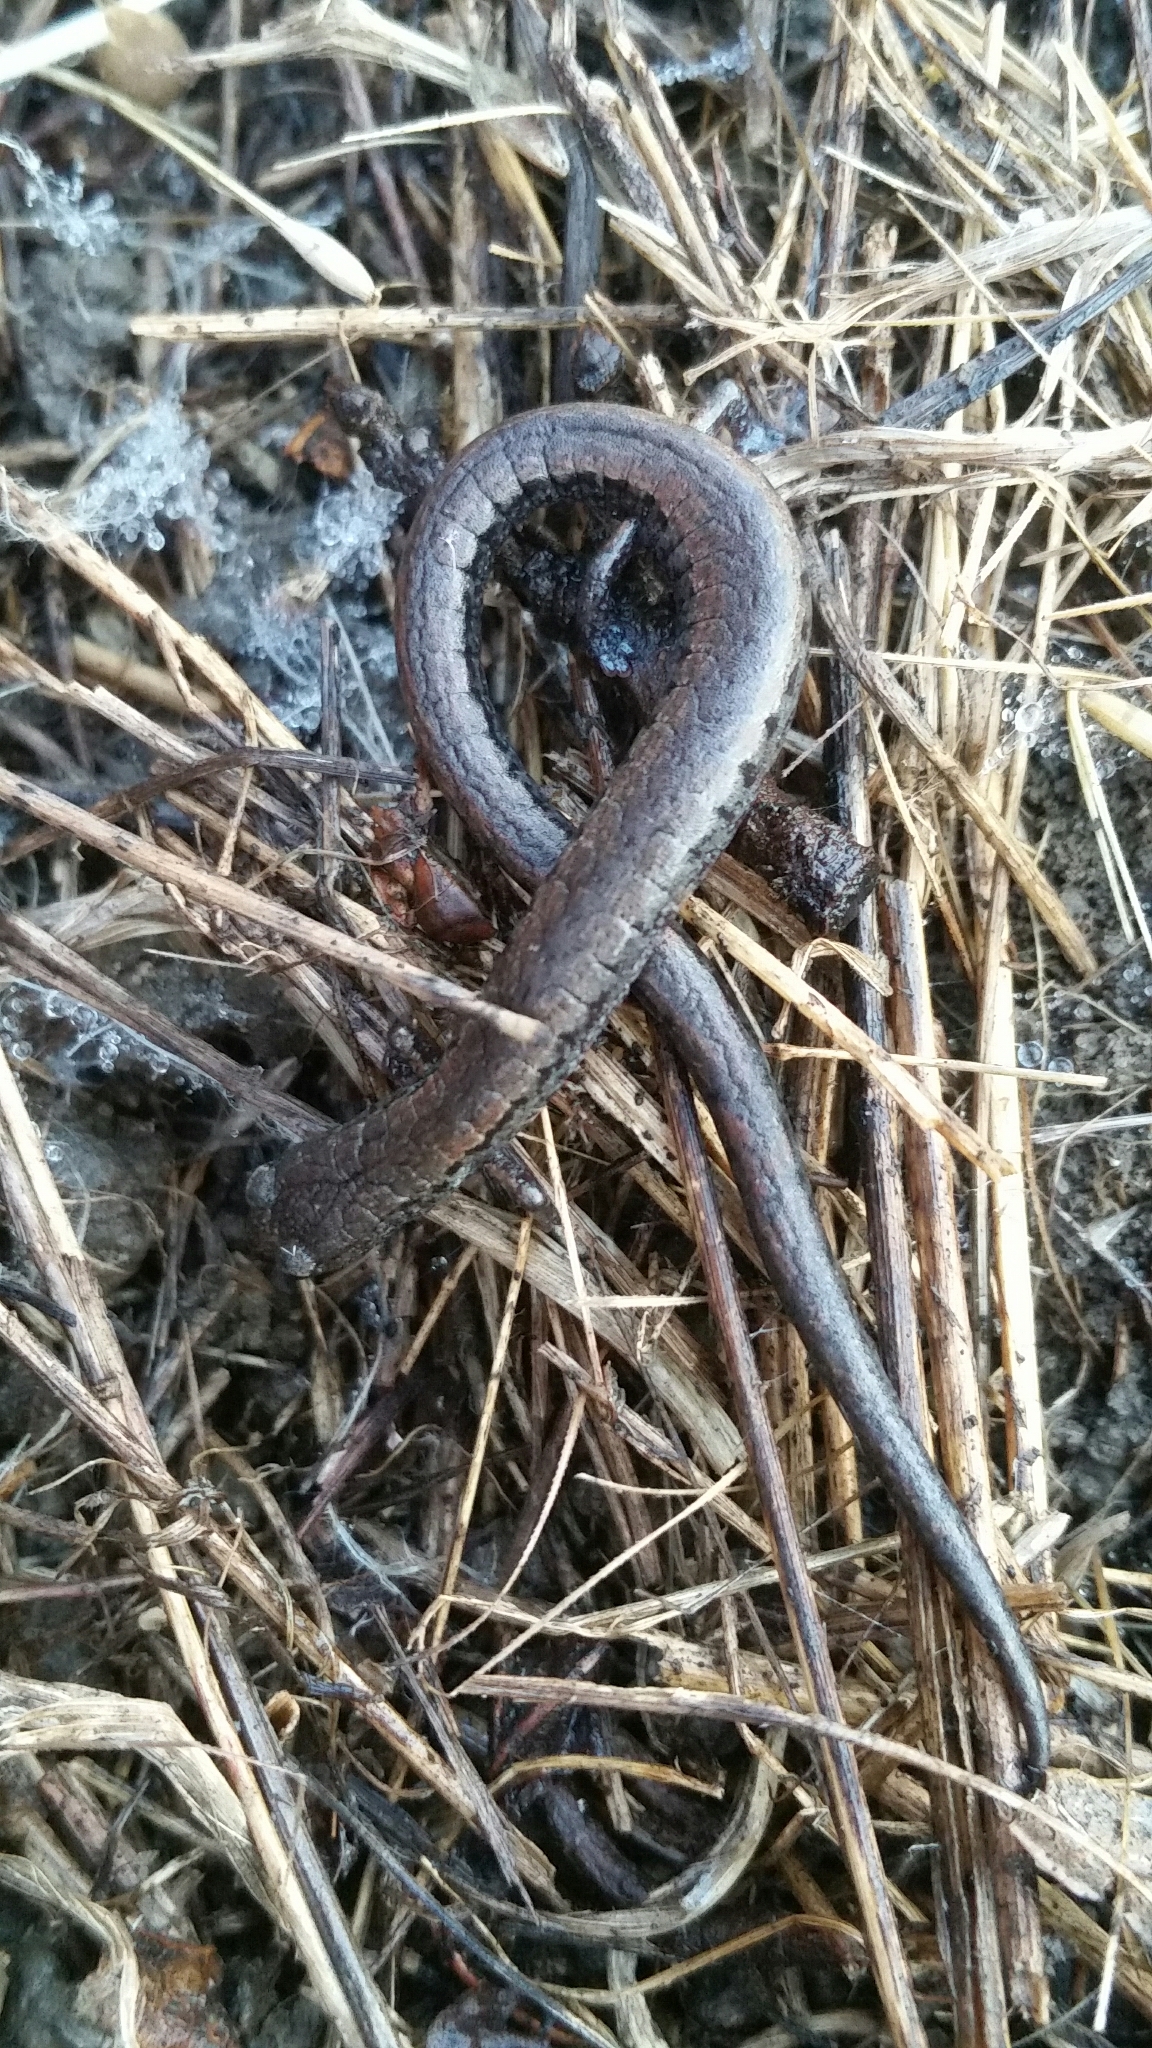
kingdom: Animalia
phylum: Chordata
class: Amphibia
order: Caudata
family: Plethodontidae
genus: Batrachoseps
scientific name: Batrachoseps attenuatus
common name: California slender salamander
